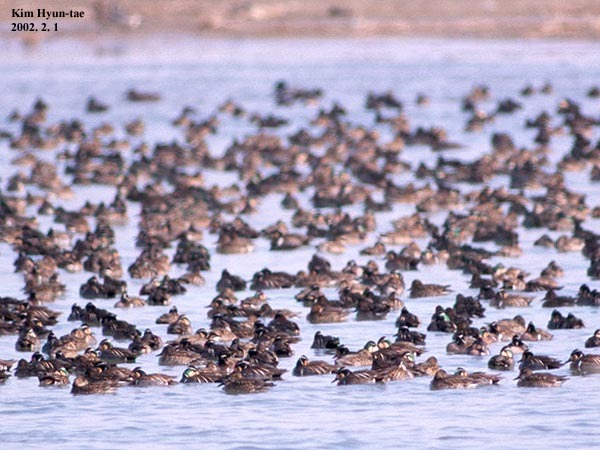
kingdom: Animalia
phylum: Chordata
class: Aves
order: Anseriformes
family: Anatidae
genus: Sibirionetta
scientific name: Sibirionetta formosa
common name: Baikal teal
